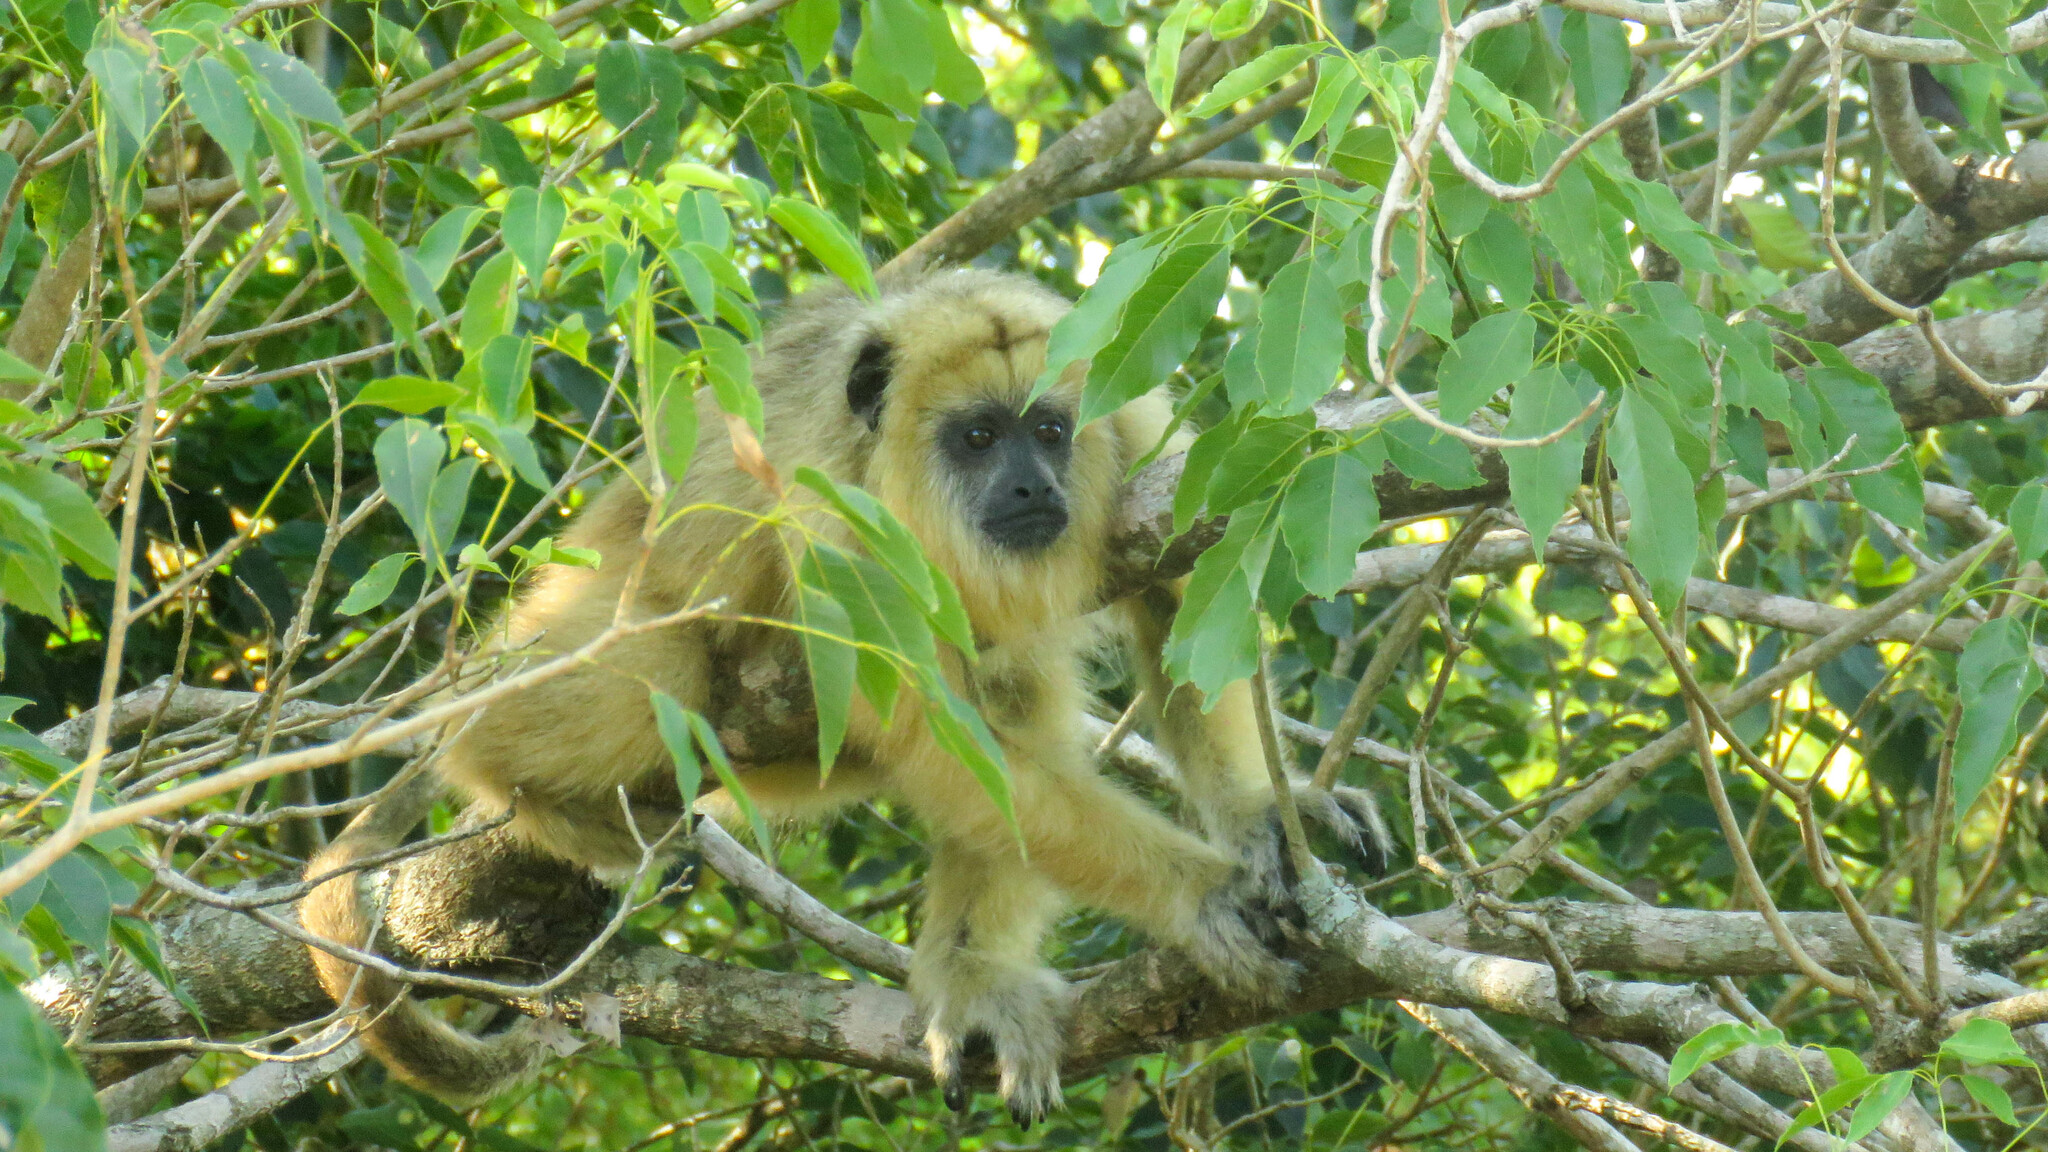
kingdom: Animalia
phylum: Chordata
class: Mammalia
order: Primates
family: Atelidae
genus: Alouatta
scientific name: Alouatta caraya
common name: Black howler
